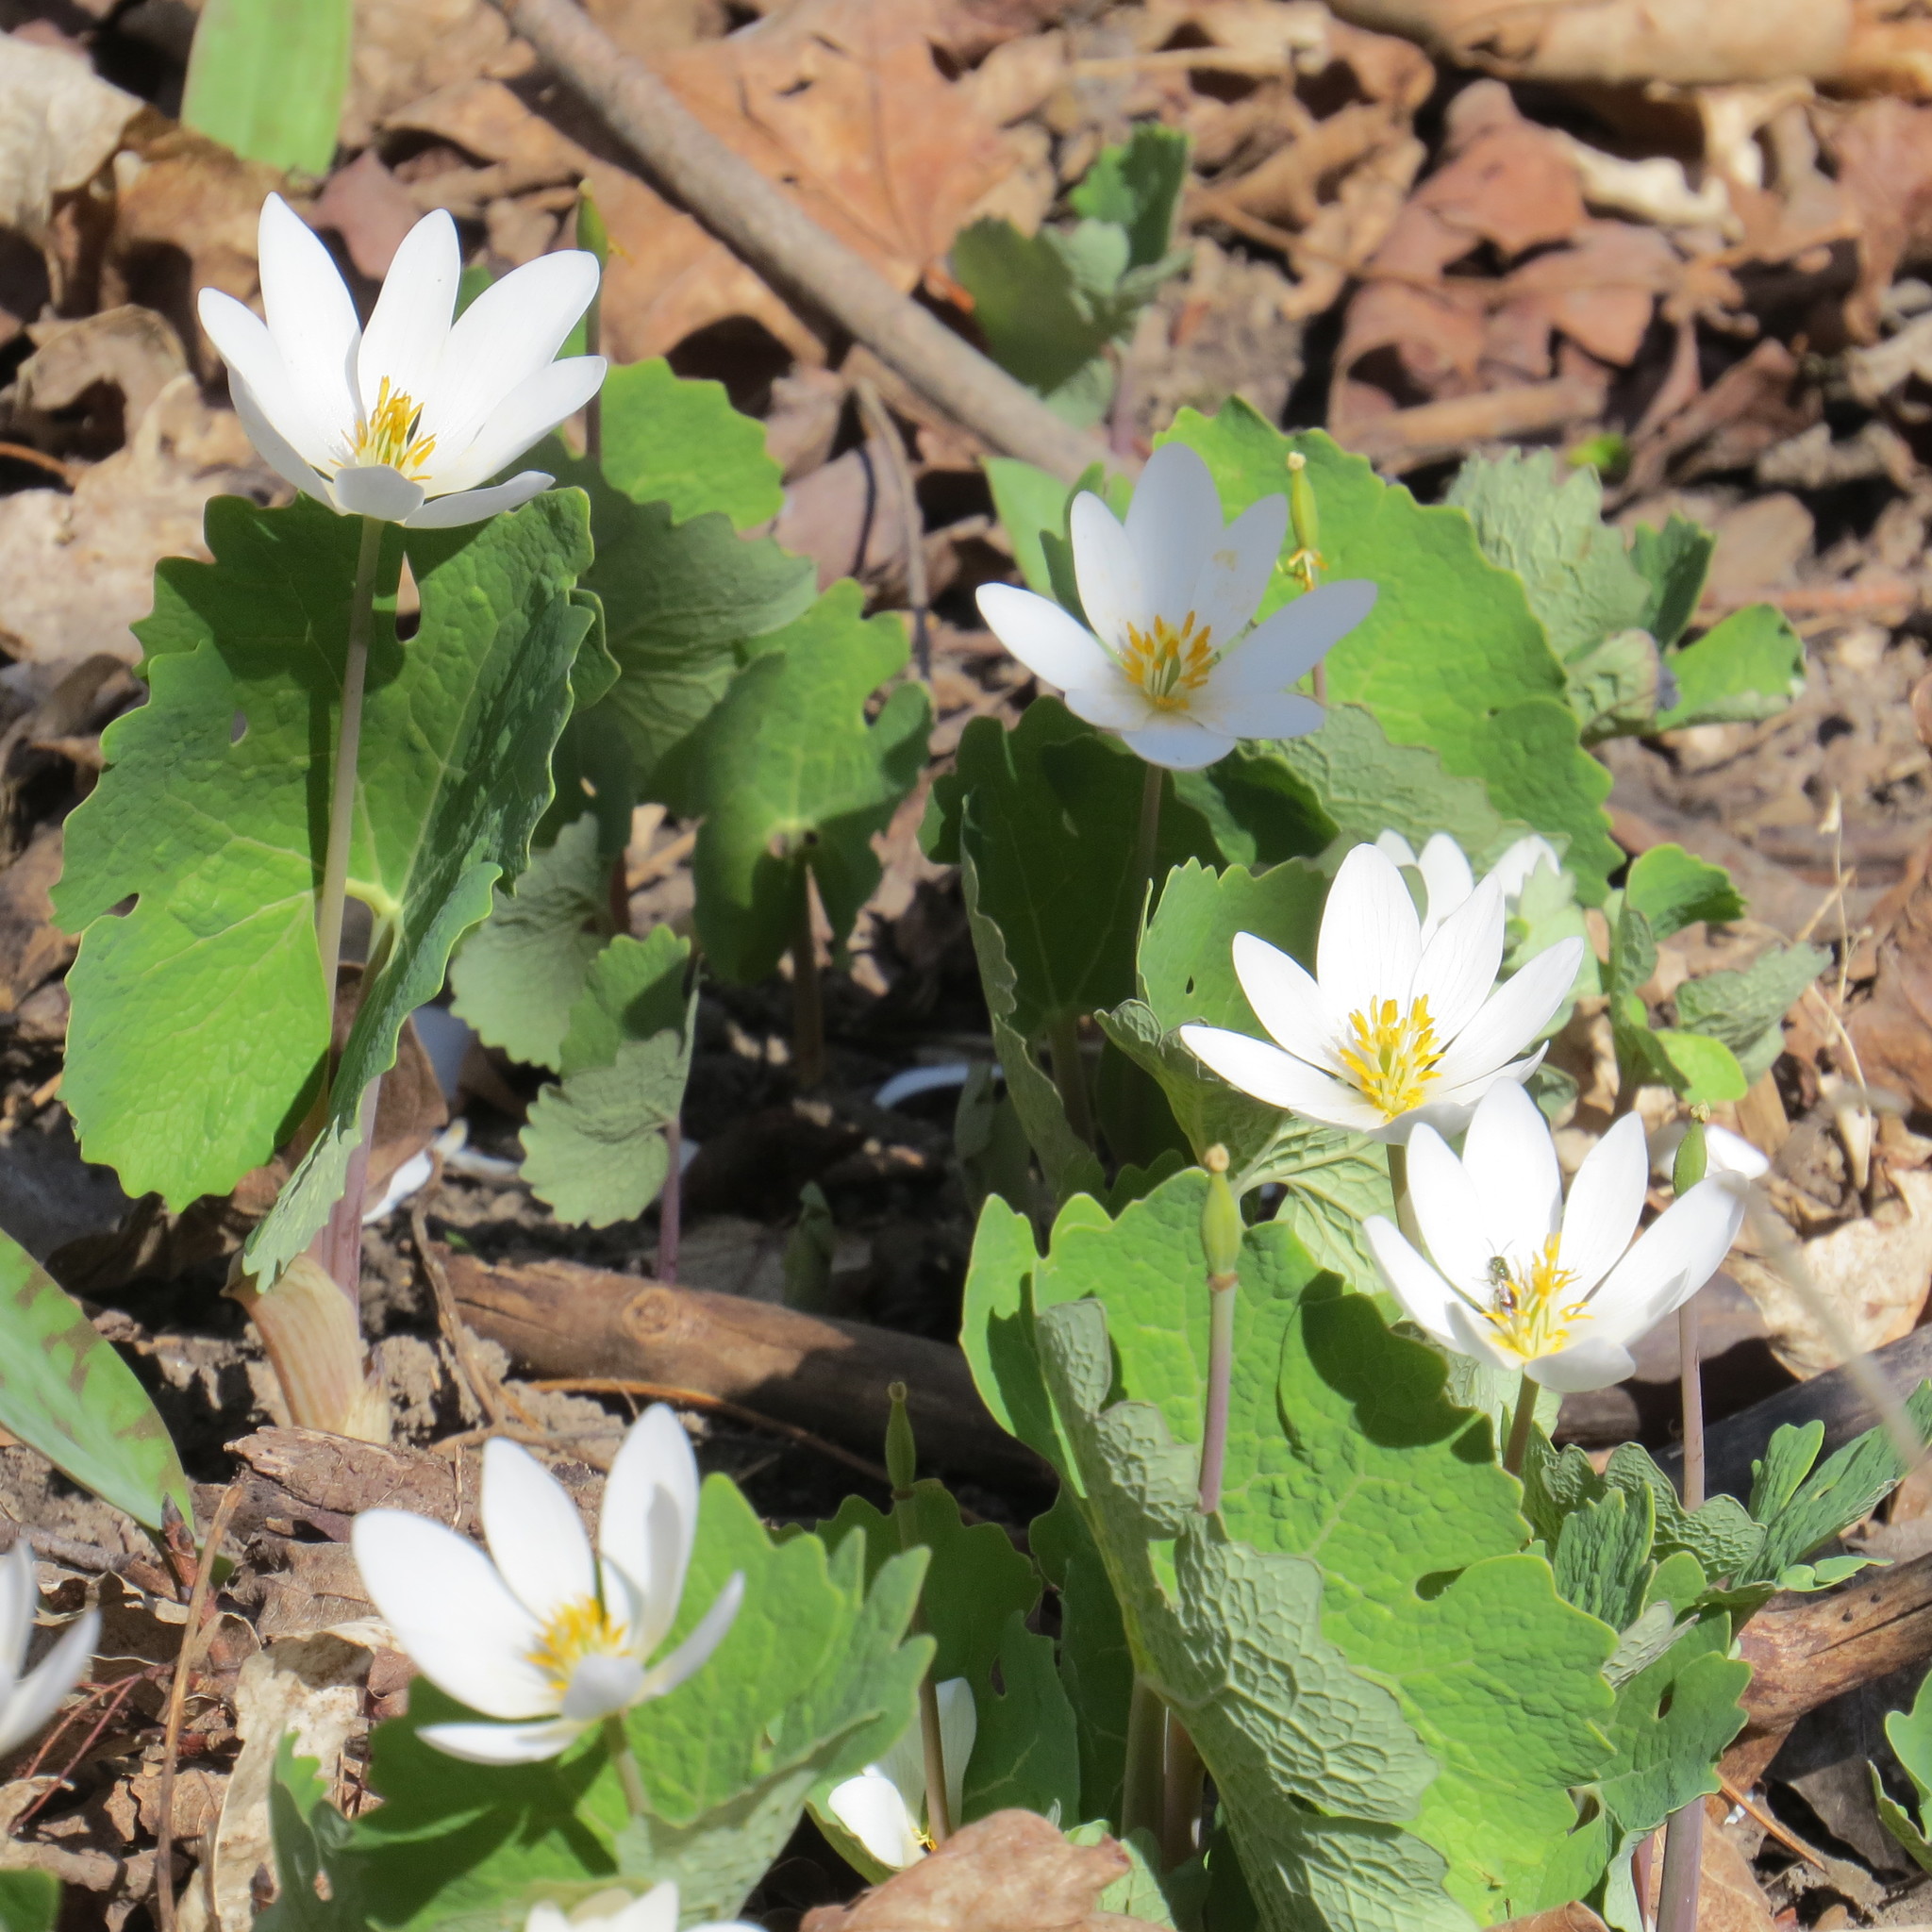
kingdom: Plantae
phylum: Tracheophyta
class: Magnoliopsida
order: Ranunculales
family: Papaveraceae
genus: Sanguinaria
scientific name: Sanguinaria canadensis
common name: Bloodroot
